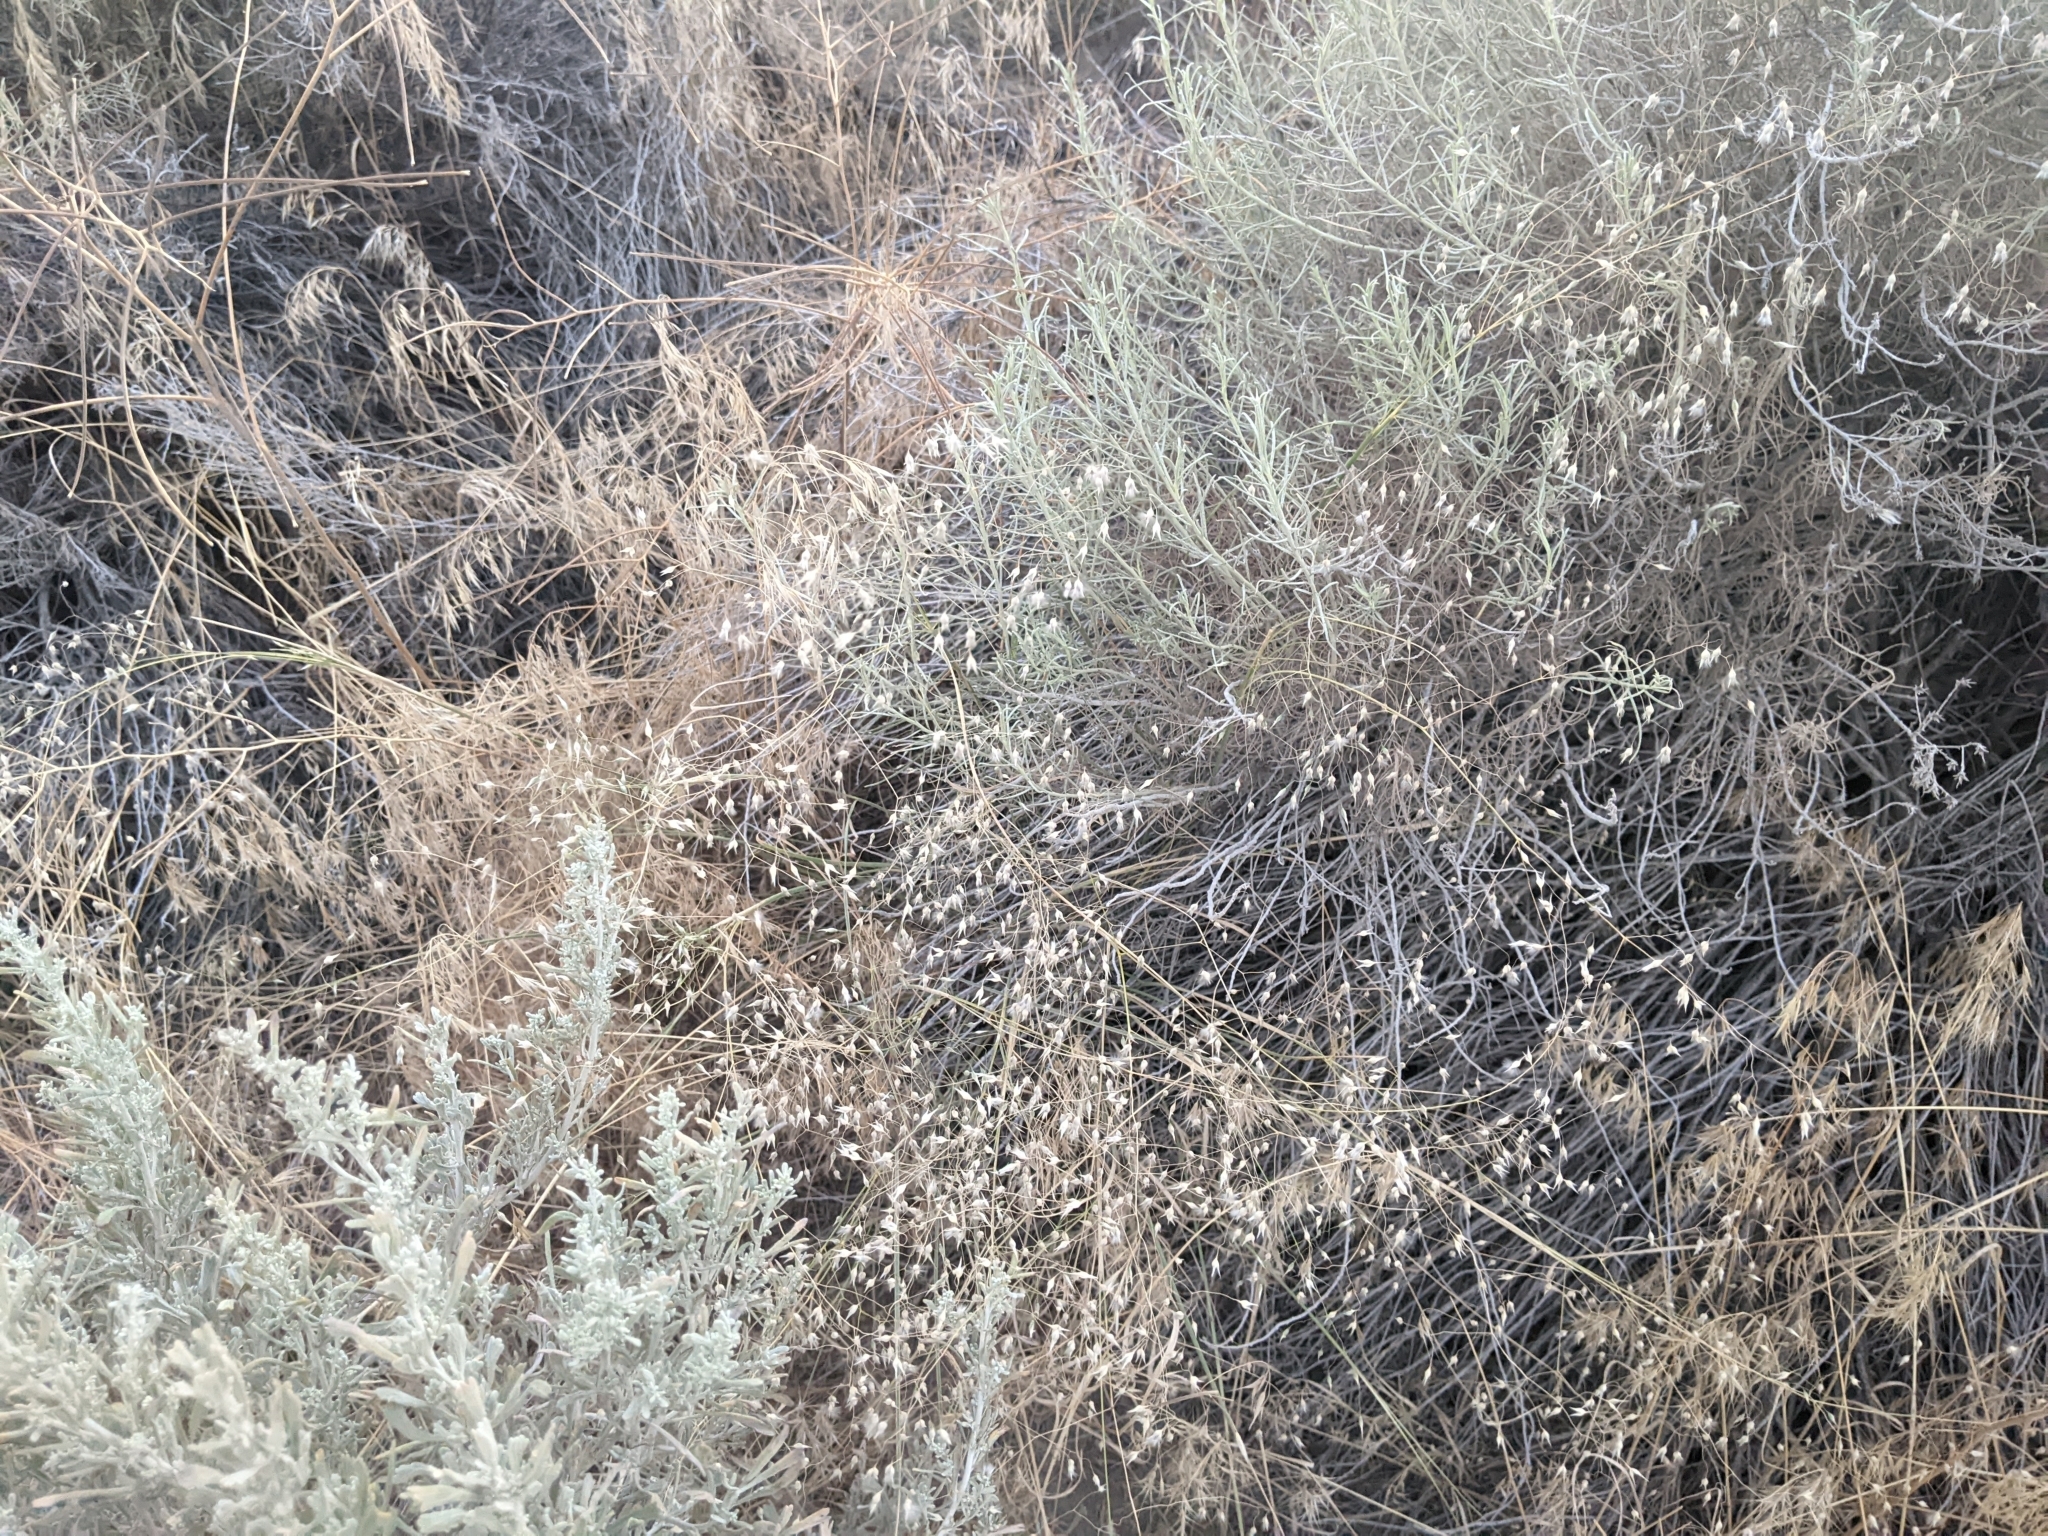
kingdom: Plantae
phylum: Tracheophyta
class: Liliopsida
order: Poales
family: Poaceae
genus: Eriocoma
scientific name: Eriocoma hymenoides
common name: Indian mountain ricegrass
